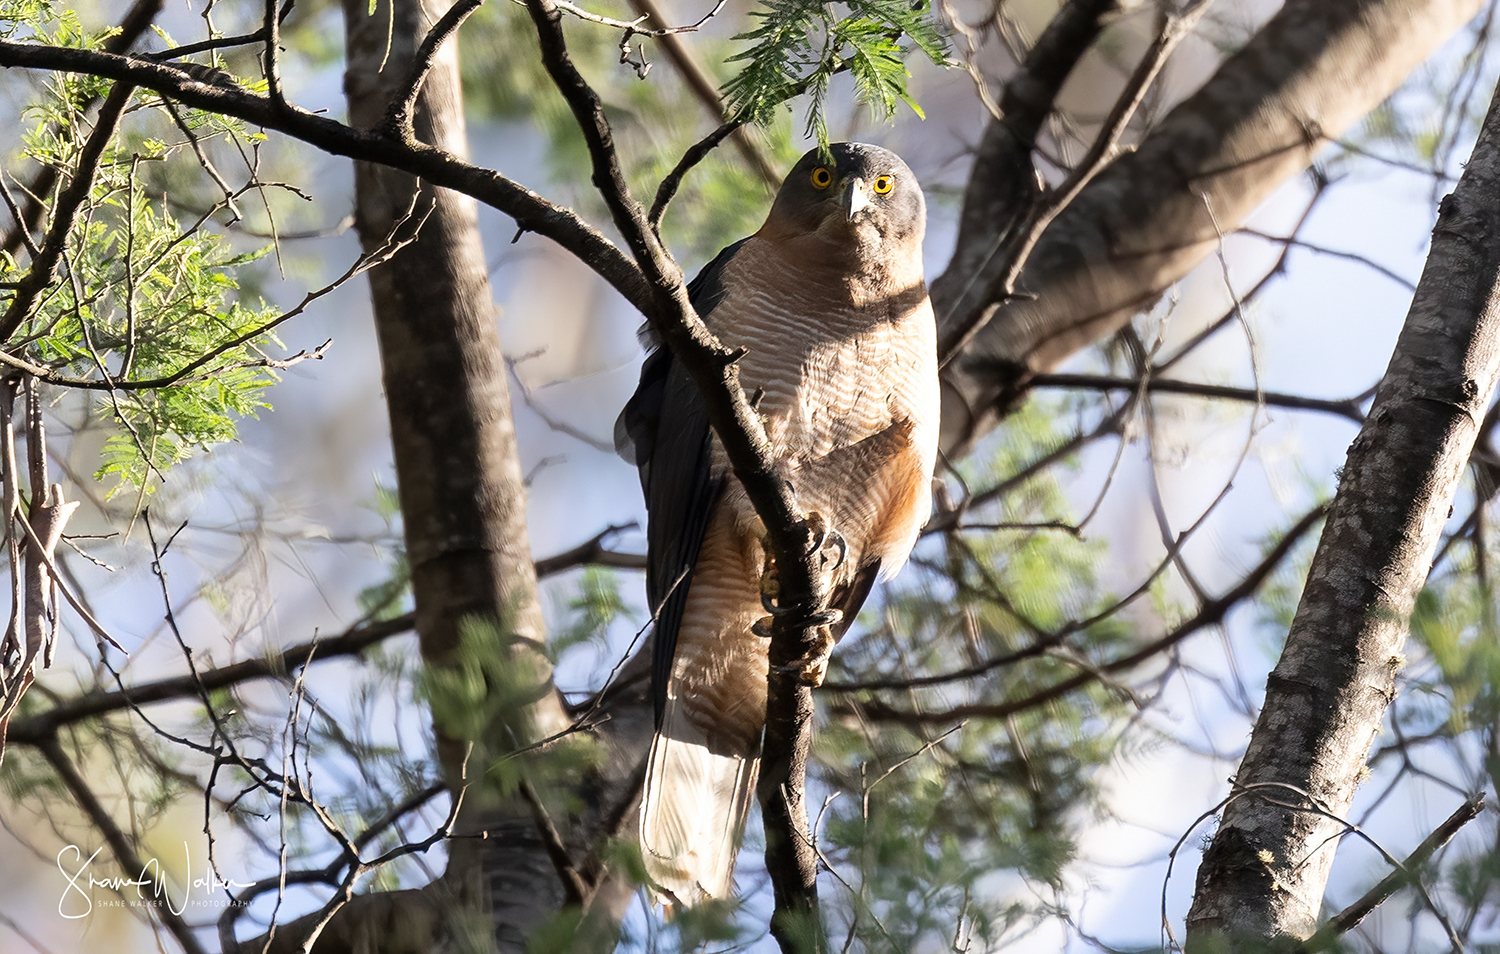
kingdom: Animalia
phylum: Chordata
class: Aves
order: Accipitriformes
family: Accipitridae
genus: Accipiter
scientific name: Accipiter fasciatus
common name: Brown goshawk
